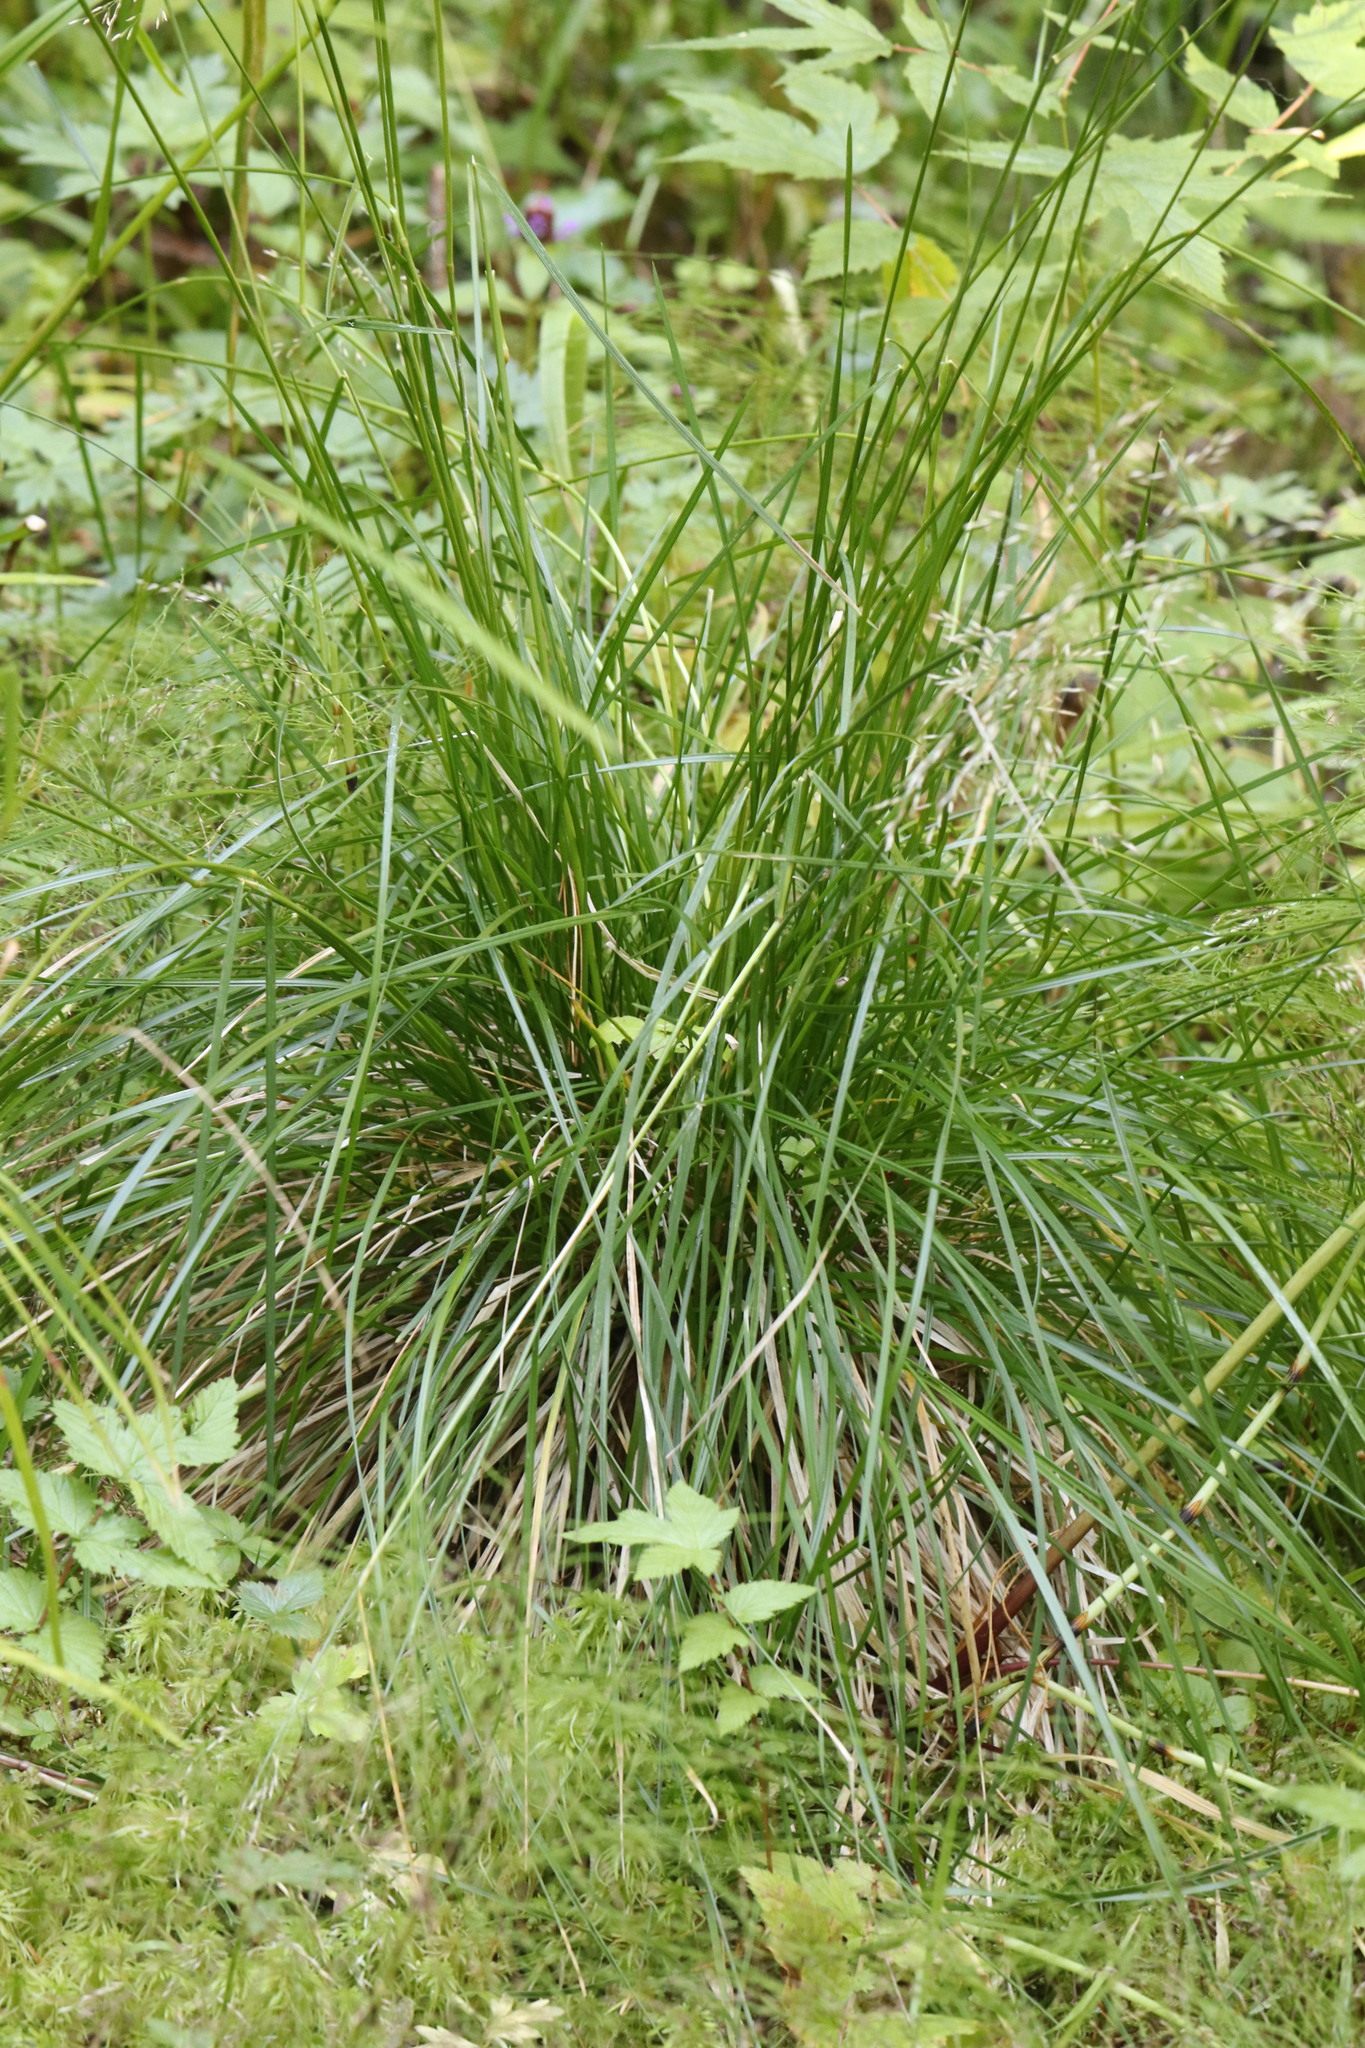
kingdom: Plantae
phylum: Tracheophyta
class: Liliopsida
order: Poales
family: Poaceae
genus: Deschampsia
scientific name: Deschampsia cespitosa
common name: Tufted hair-grass
